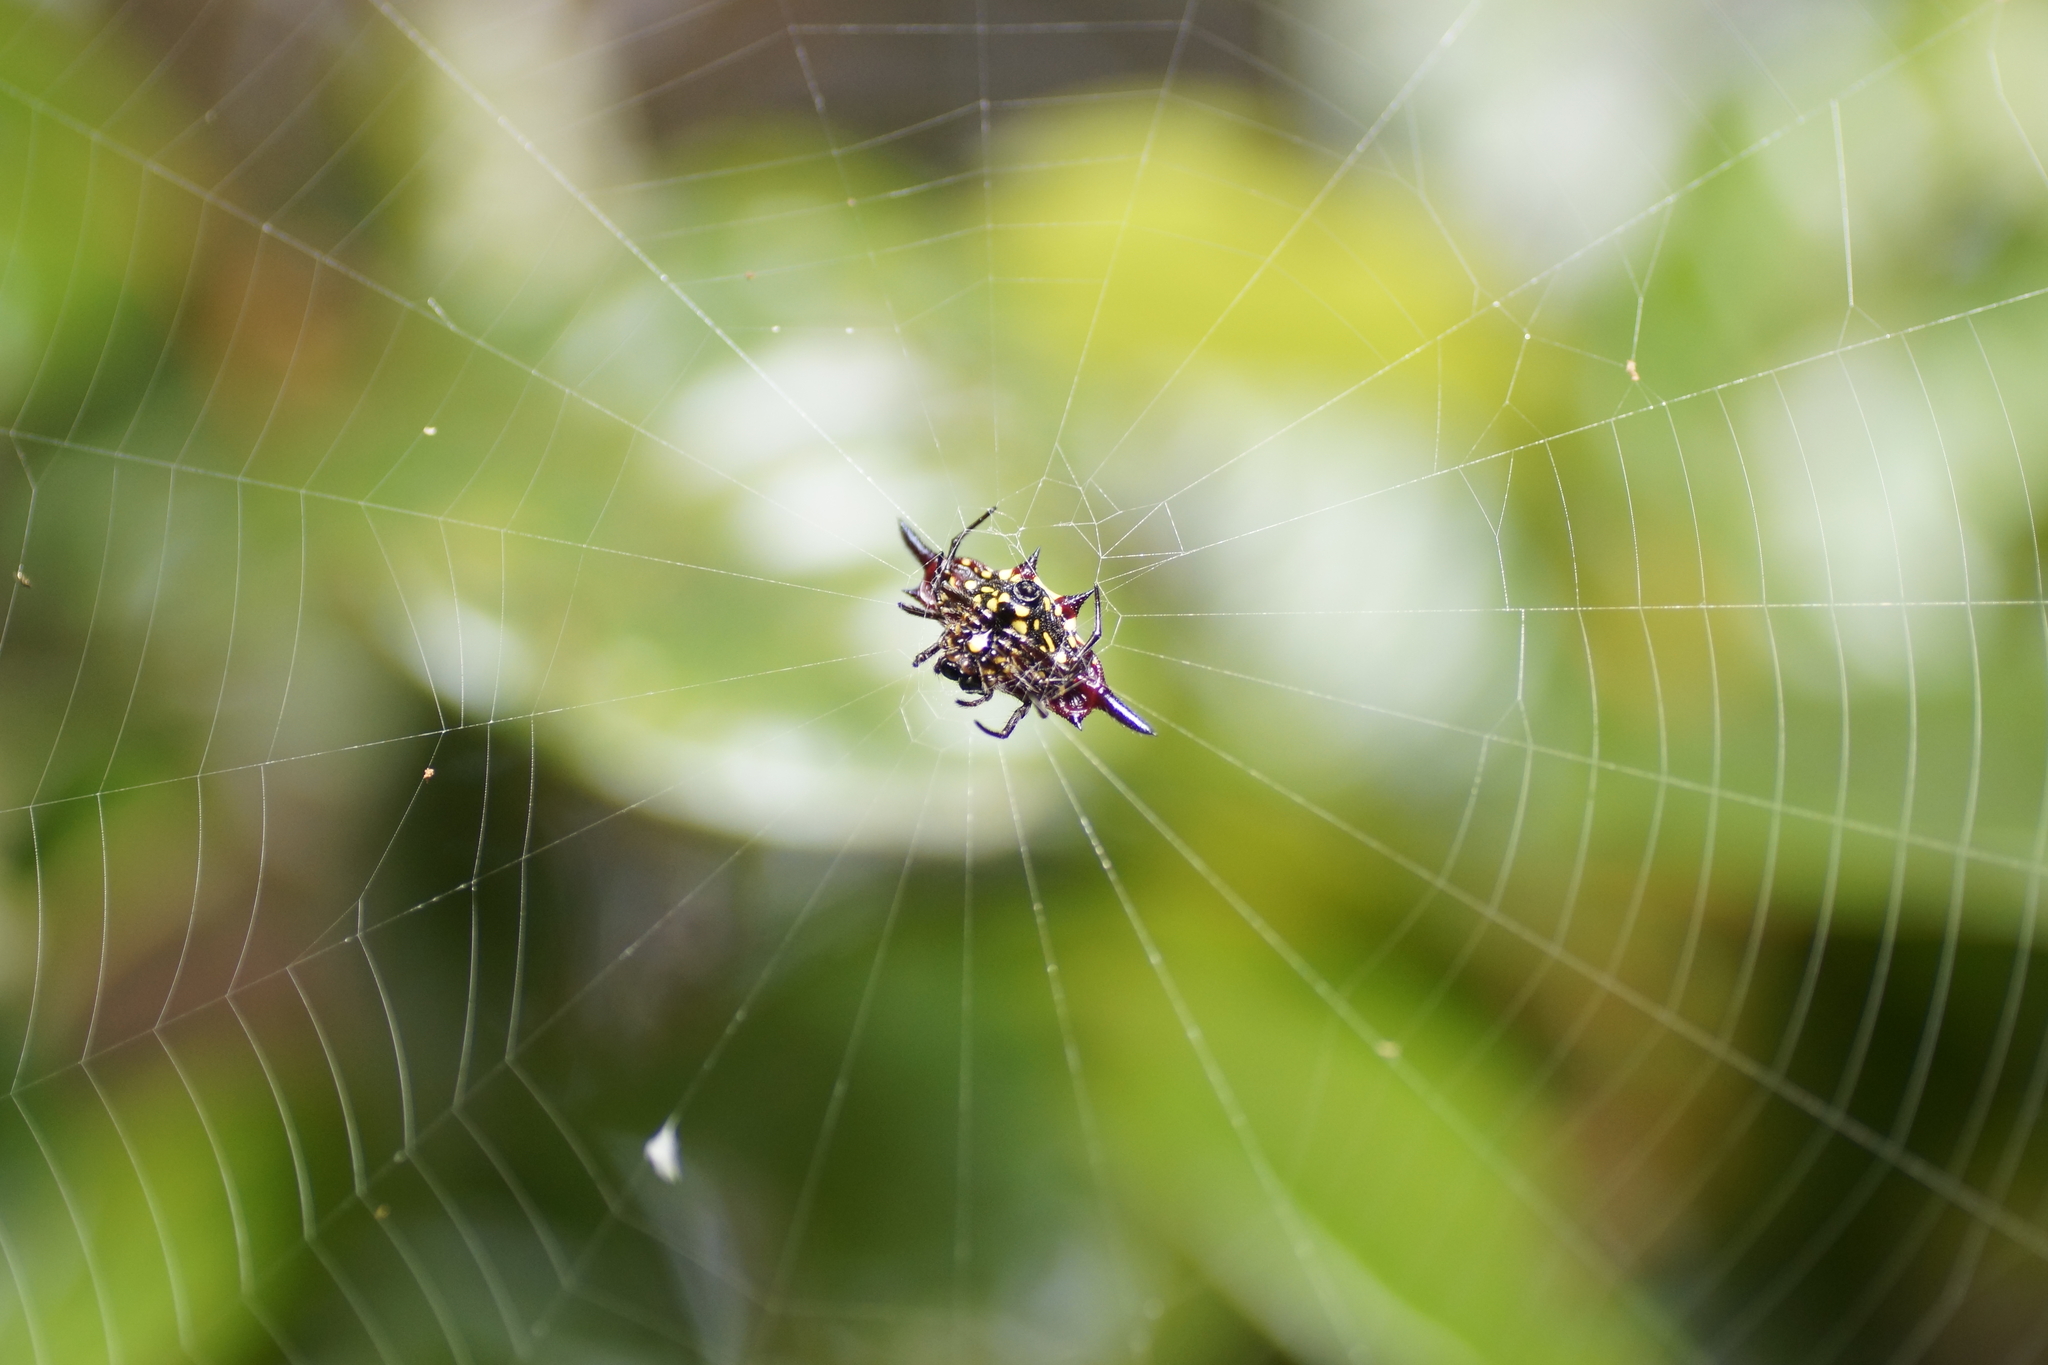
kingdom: Animalia
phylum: Arthropoda
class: Arachnida
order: Araneae
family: Araneidae
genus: Gasteracantha
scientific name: Gasteracantha fornicata
